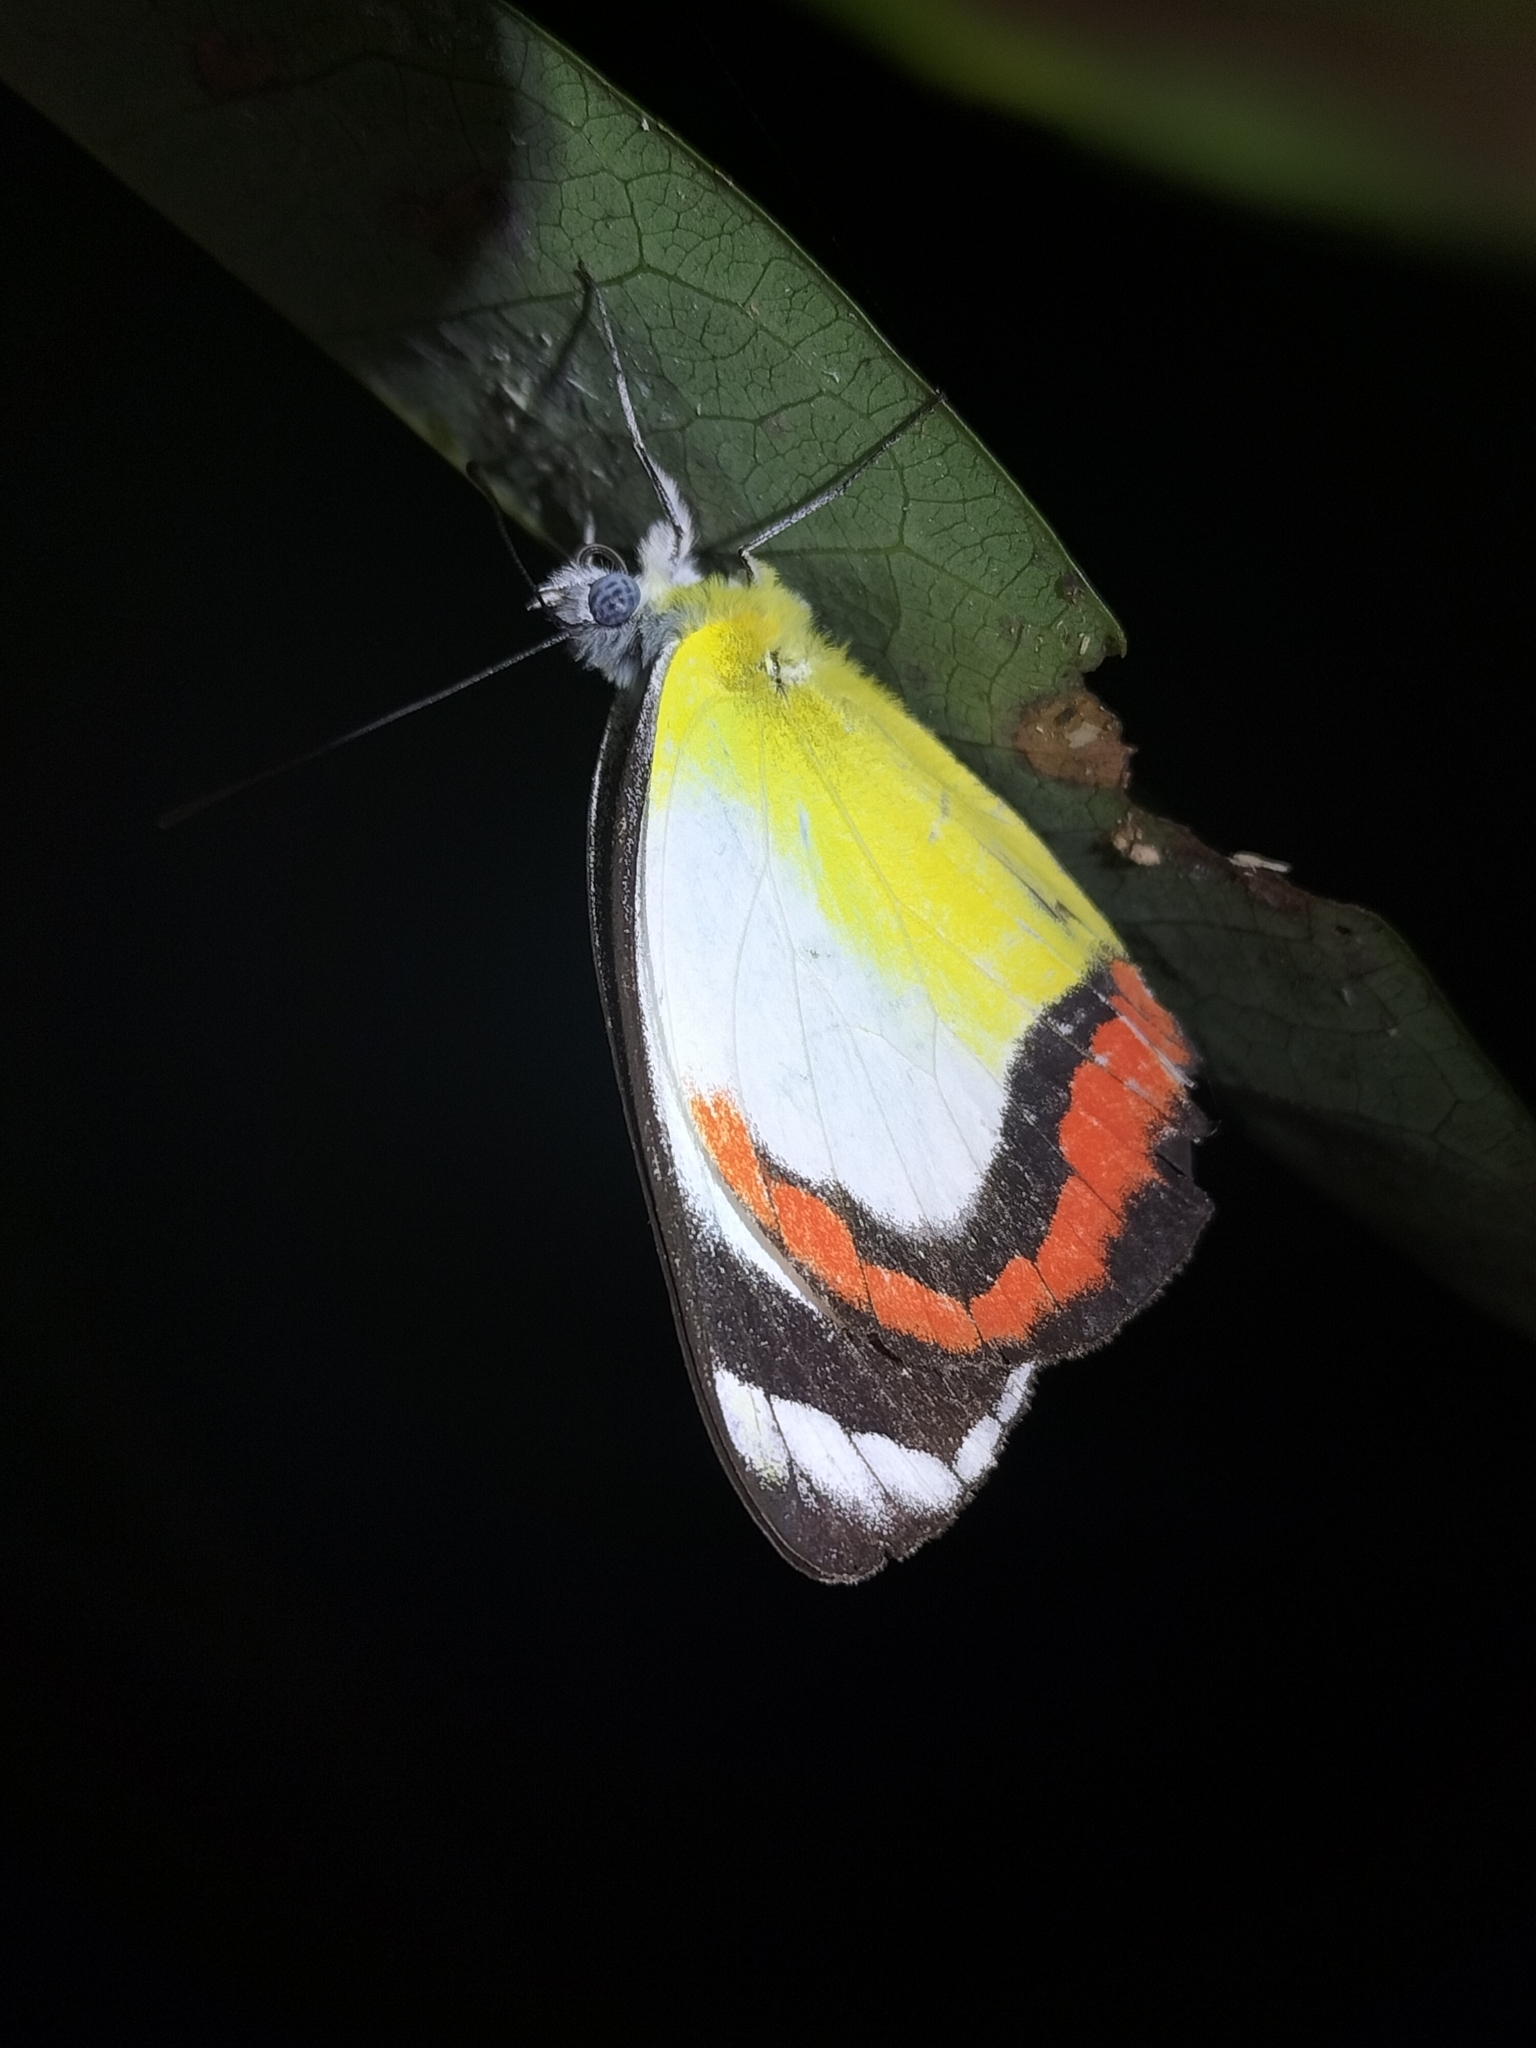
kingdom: Animalia
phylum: Arthropoda
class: Insecta
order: Lepidoptera
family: Pieridae
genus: Delias
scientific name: Delias mysis
